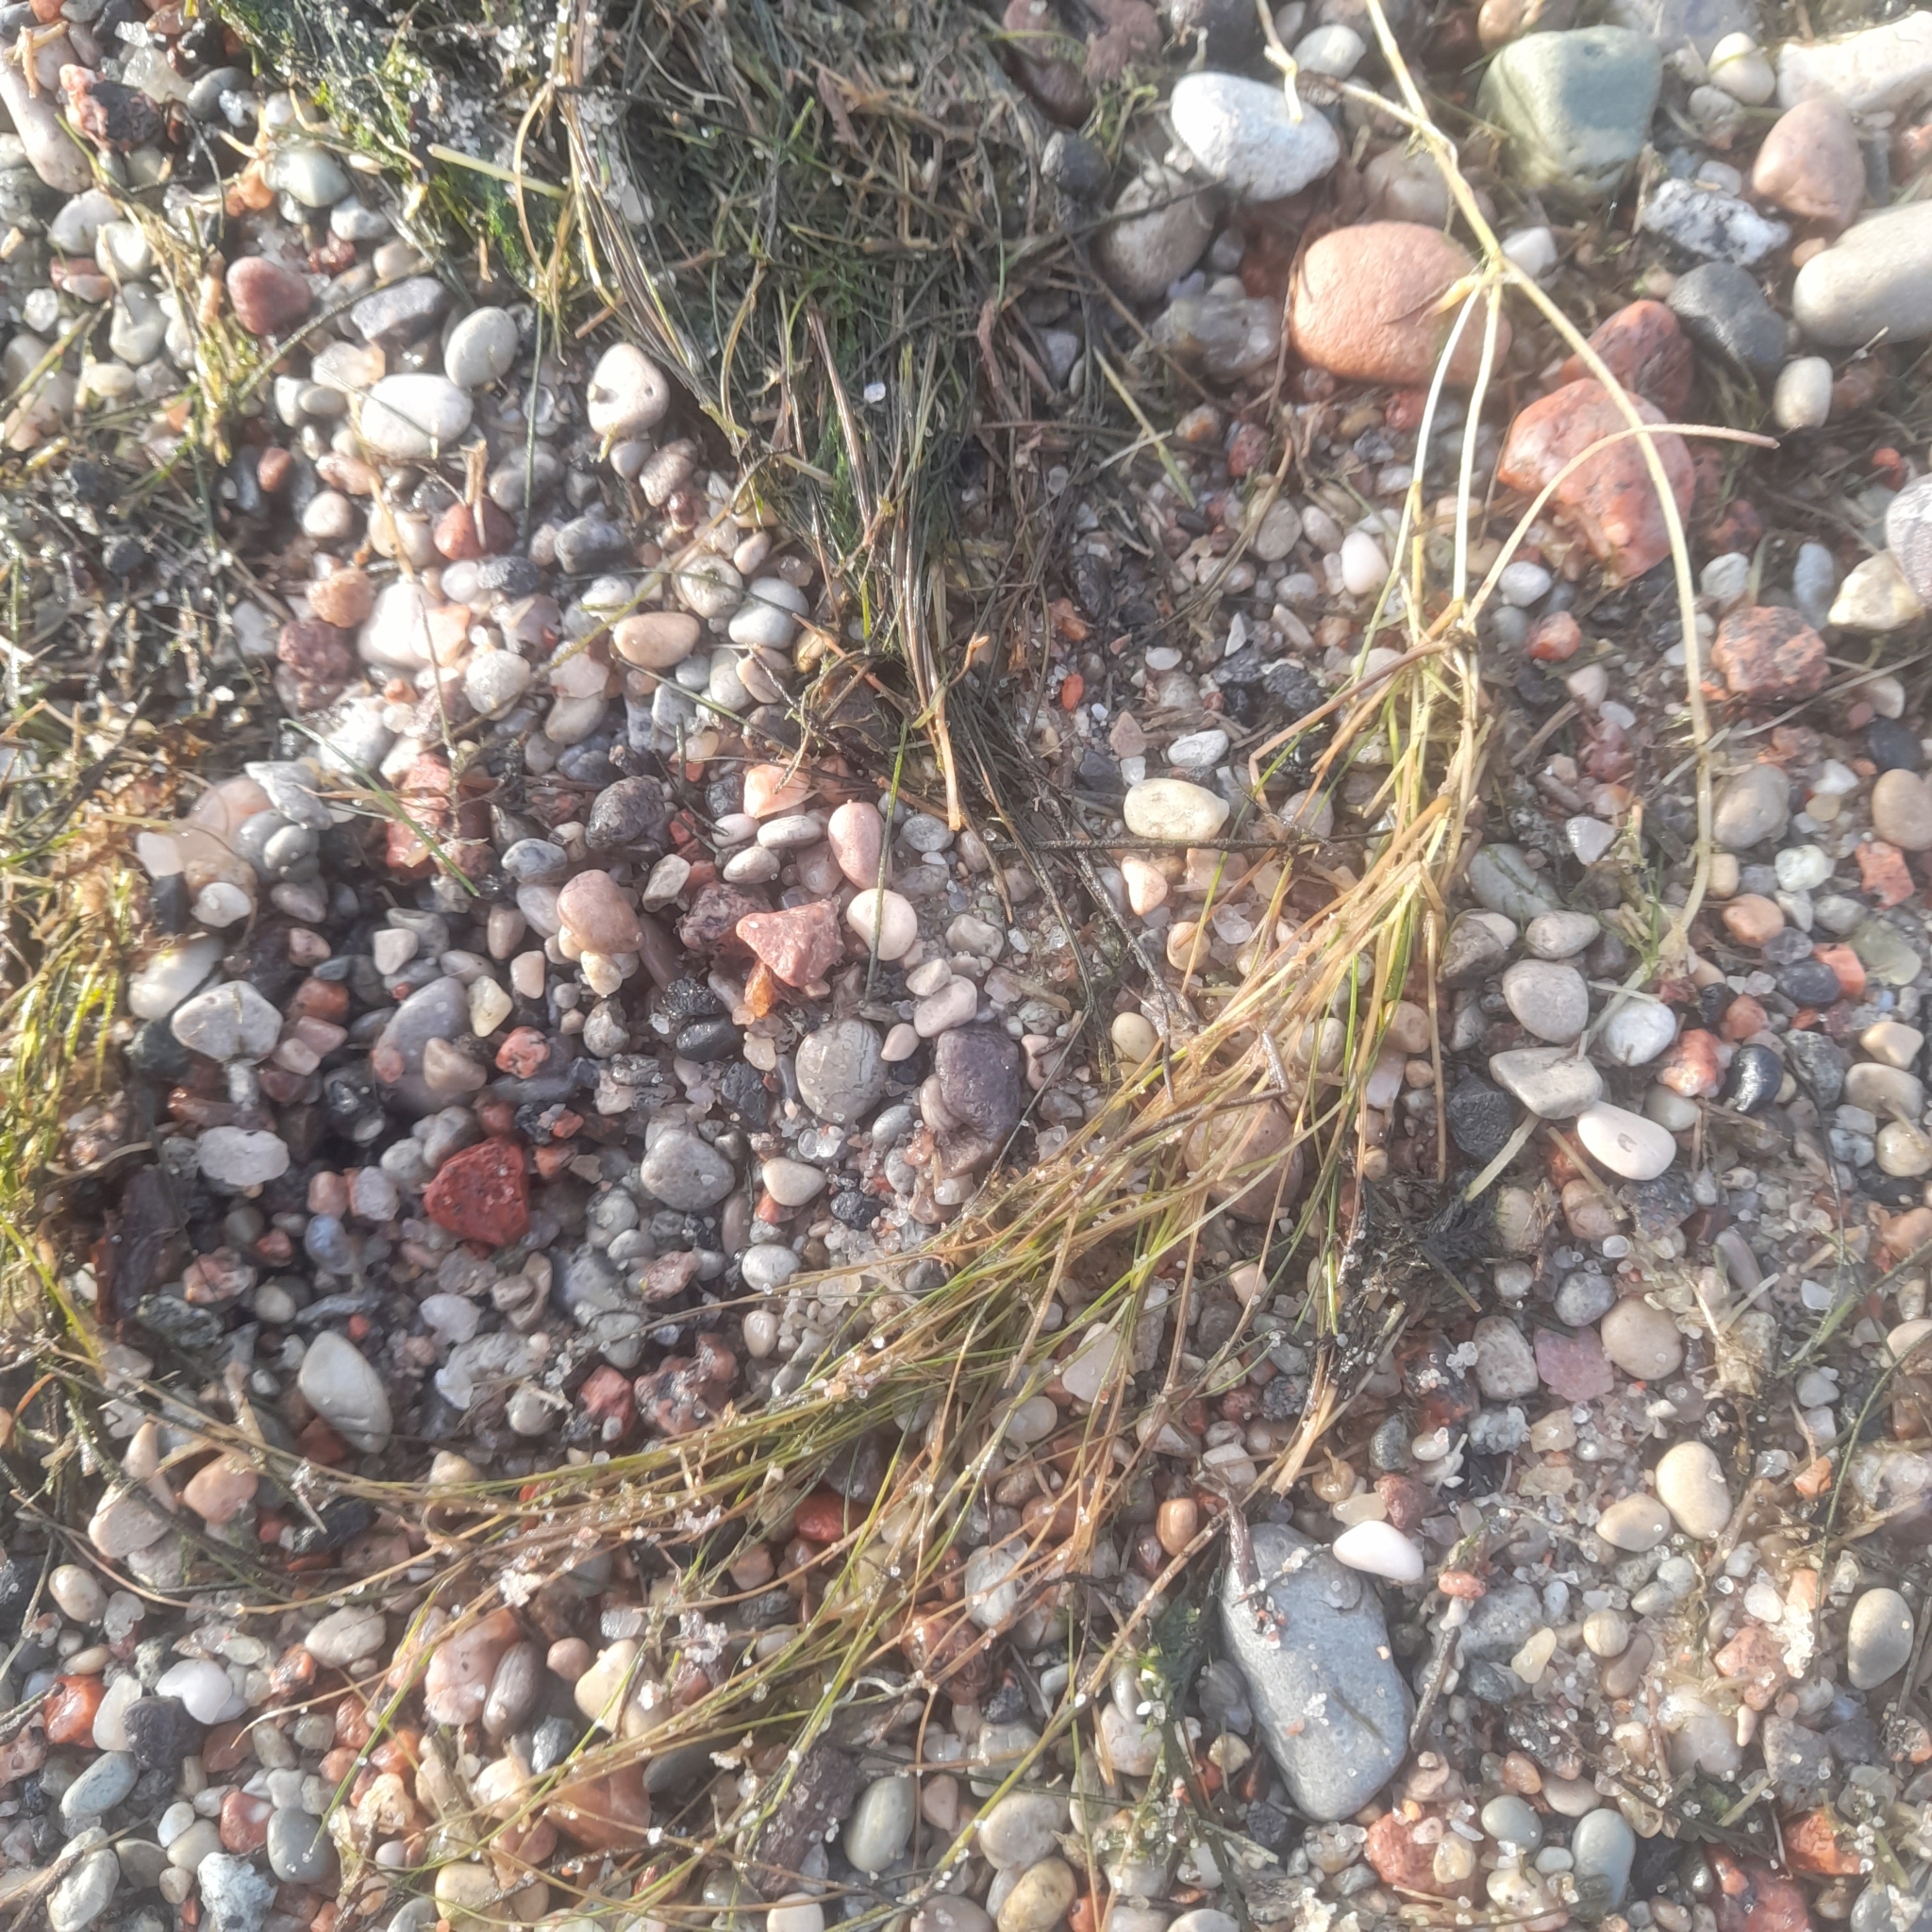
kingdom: Plantae
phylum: Tracheophyta
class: Liliopsida
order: Alismatales
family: Potamogetonaceae
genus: Stuckenia
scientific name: Stuckenia pectinata
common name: Sago pondweed
